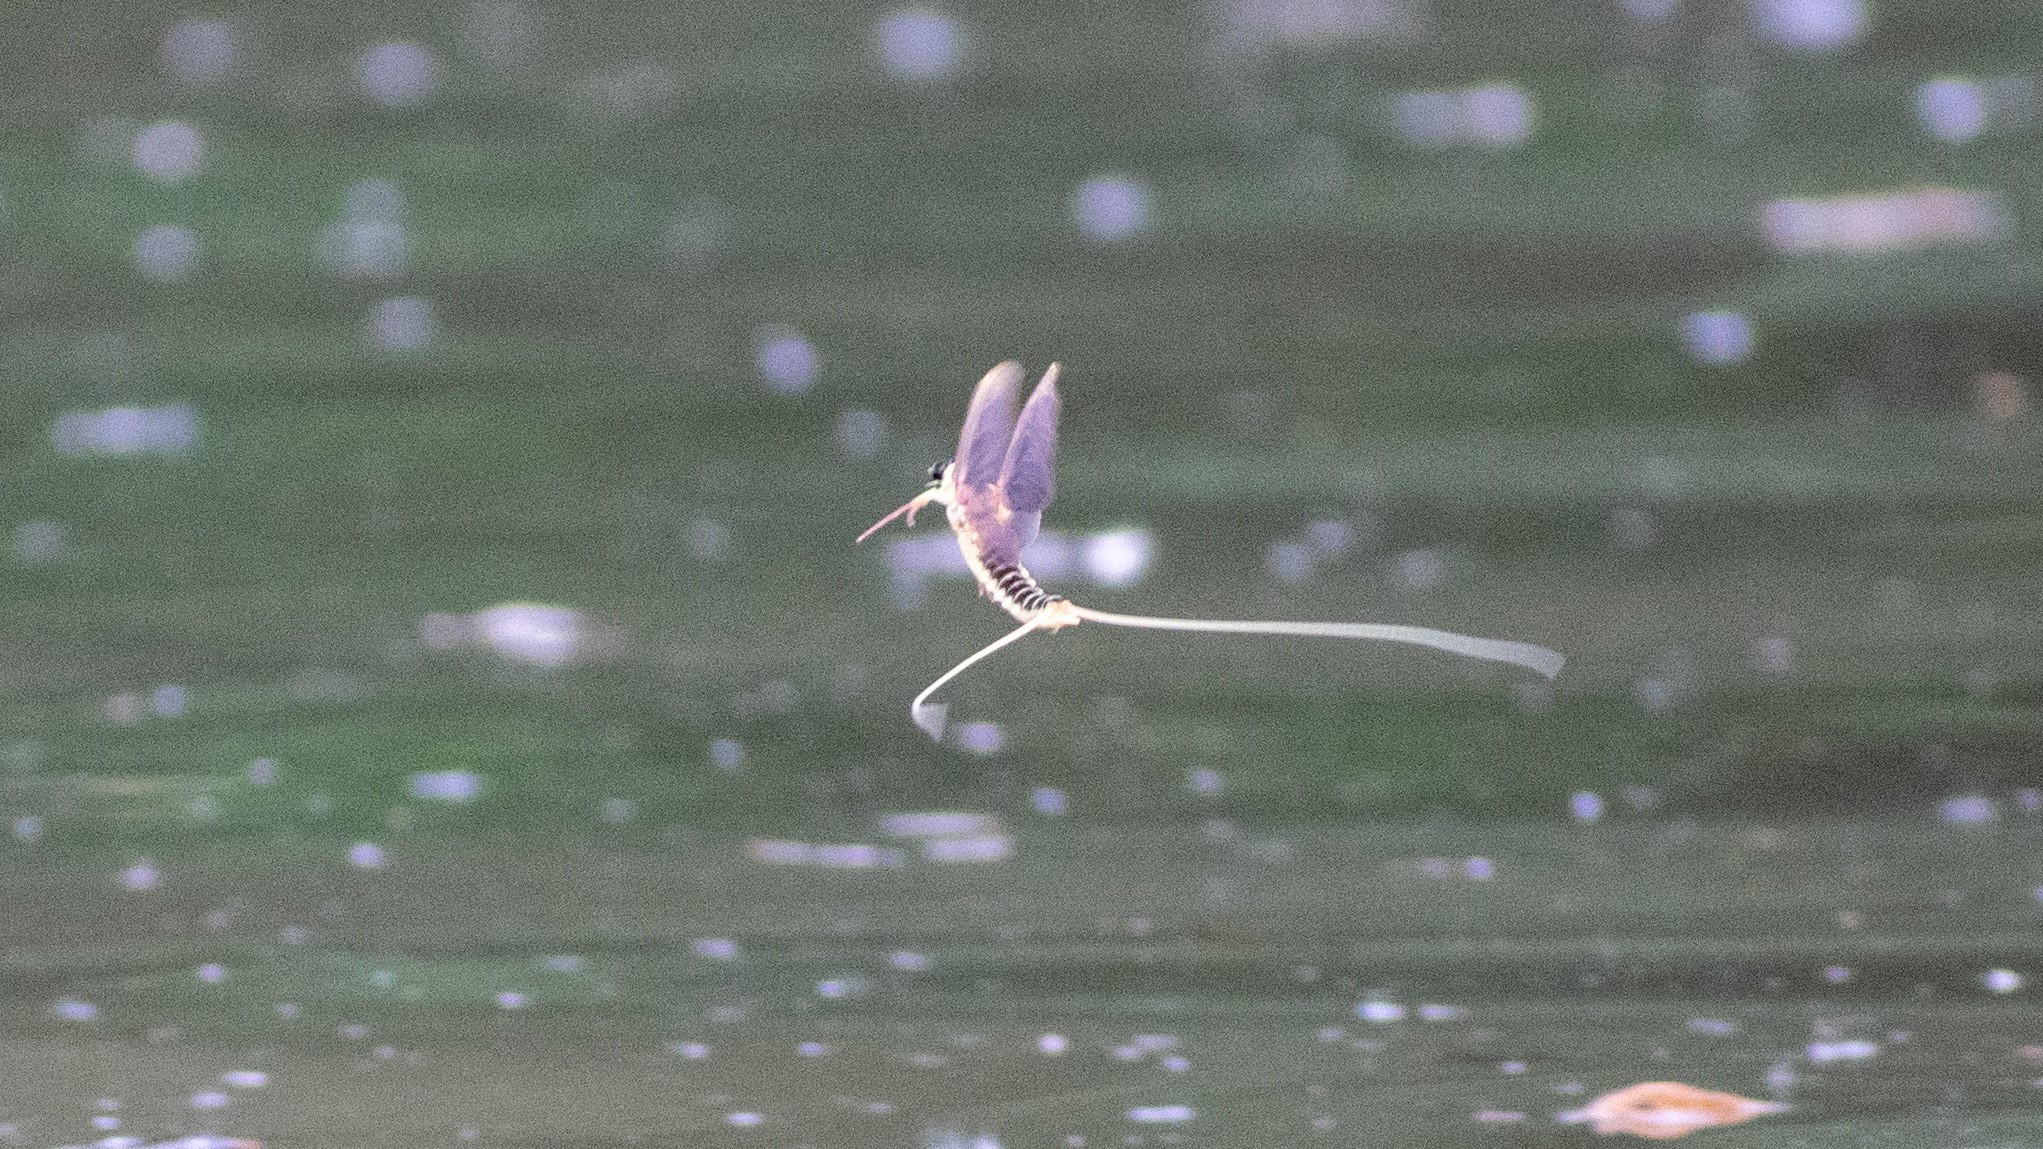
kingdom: Animalia
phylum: Arthropoda
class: Insecta
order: Ephemeroptera
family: Palingeniidae
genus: Palingenia
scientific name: Palingenia longicauda
